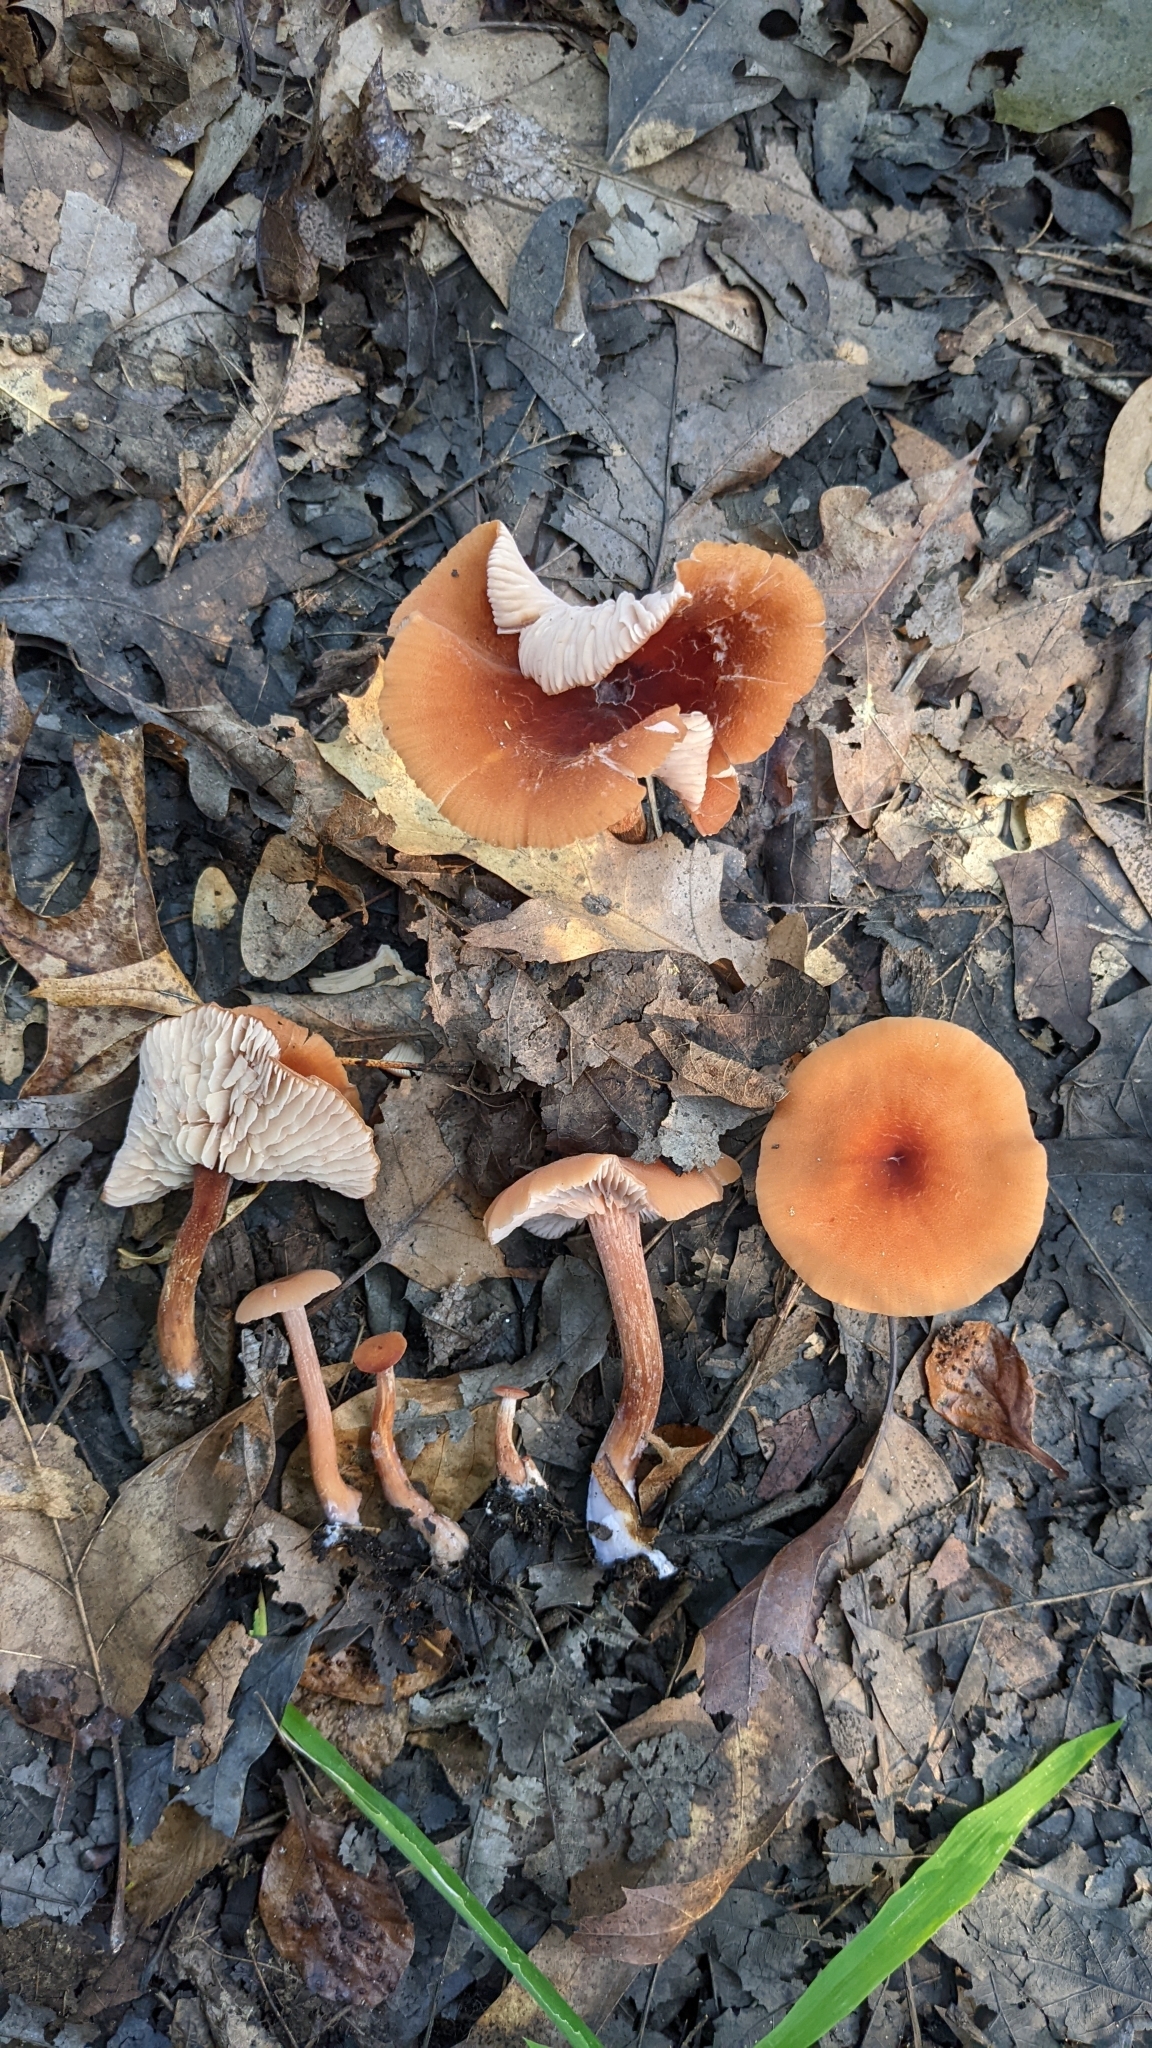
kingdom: Fungi
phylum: Basidiomycota
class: Agaricomycetes
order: Agaricales
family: Hydnangiaceae
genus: Laccaria
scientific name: Laccaria trichodermophora
